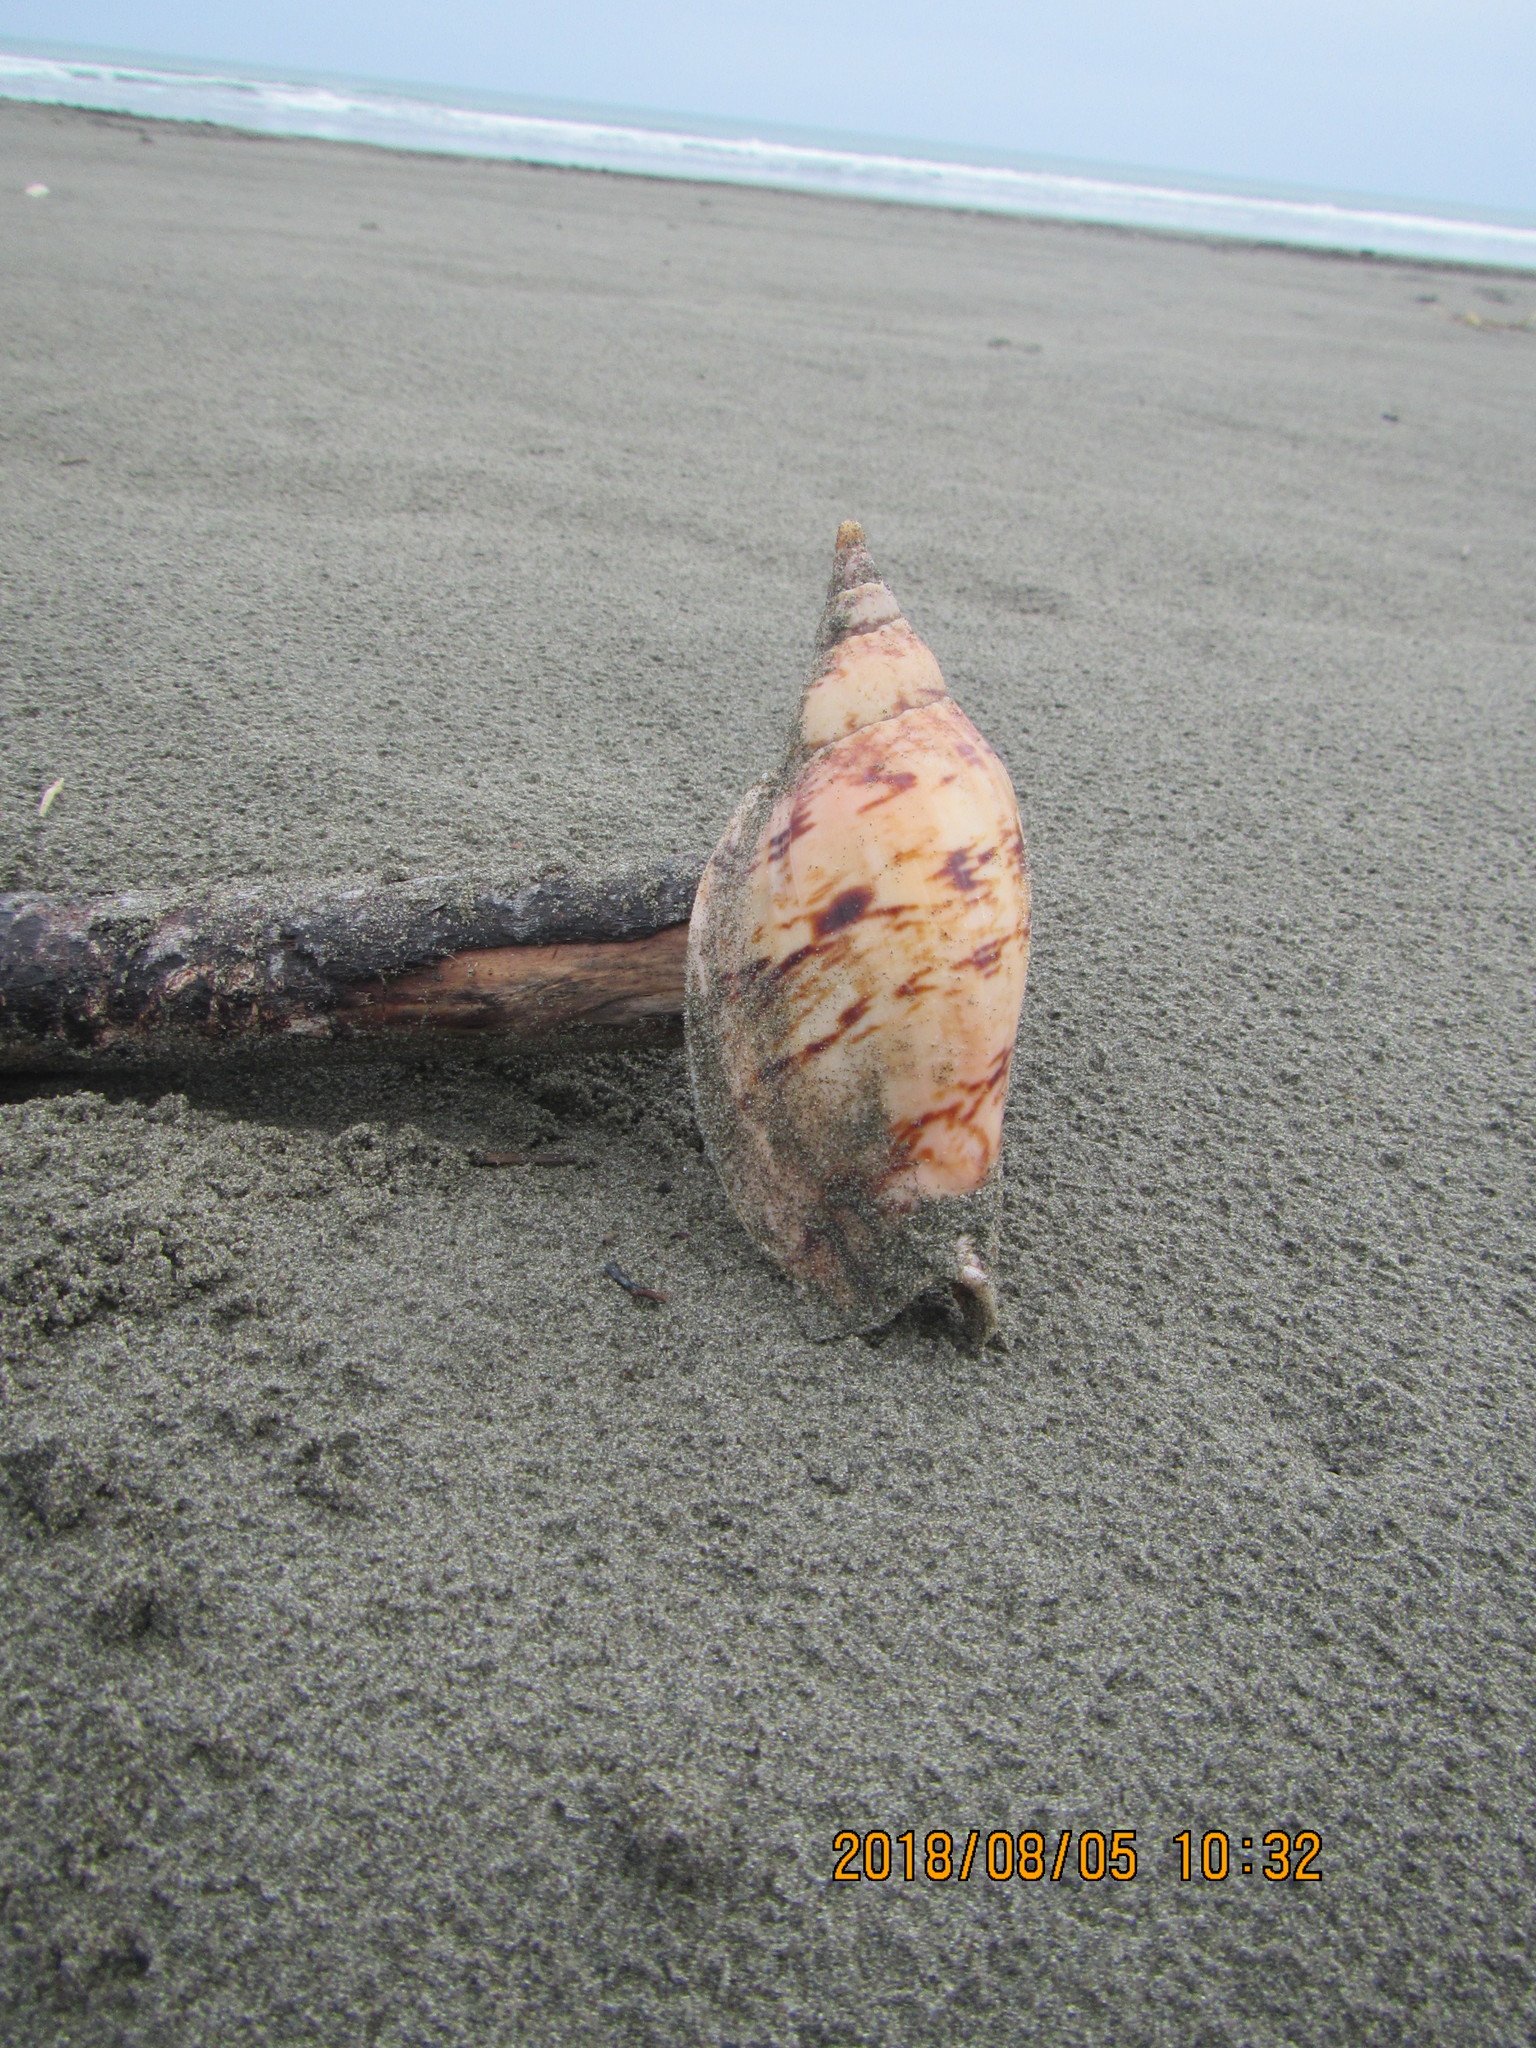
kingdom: Animalia
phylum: Mollusca
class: Gastropoda
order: Neogastropoda
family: Volutidae
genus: Alcithoe
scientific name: Alcithoe arabica
